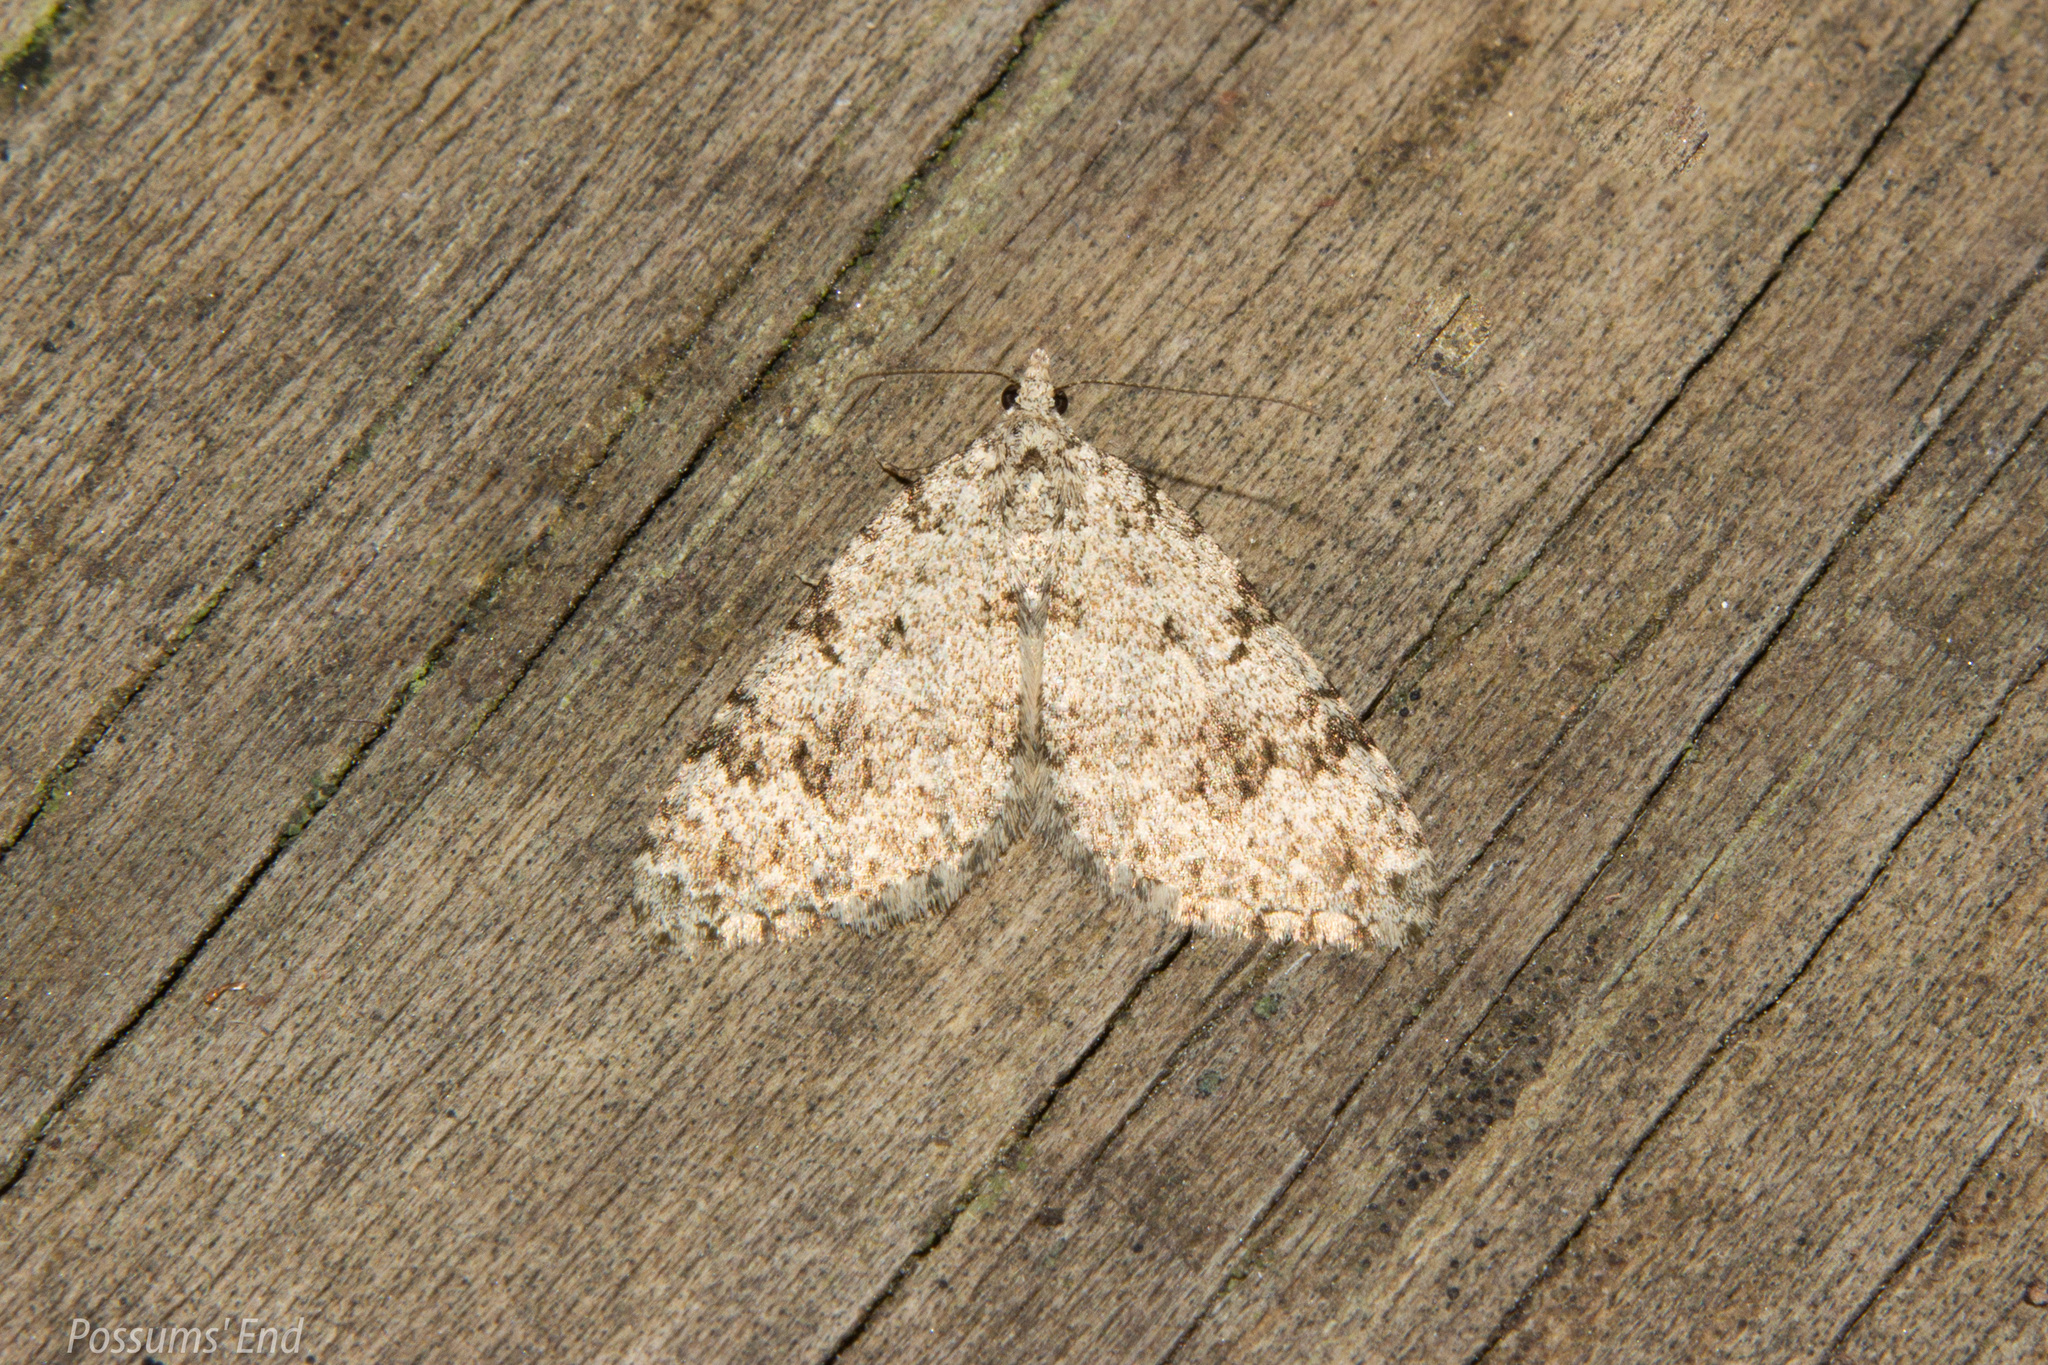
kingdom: Animalia
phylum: Arthropoda
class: Insecta
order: Lepidoptera
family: Geometridae
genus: Helastia
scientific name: Helastia cinerearia
